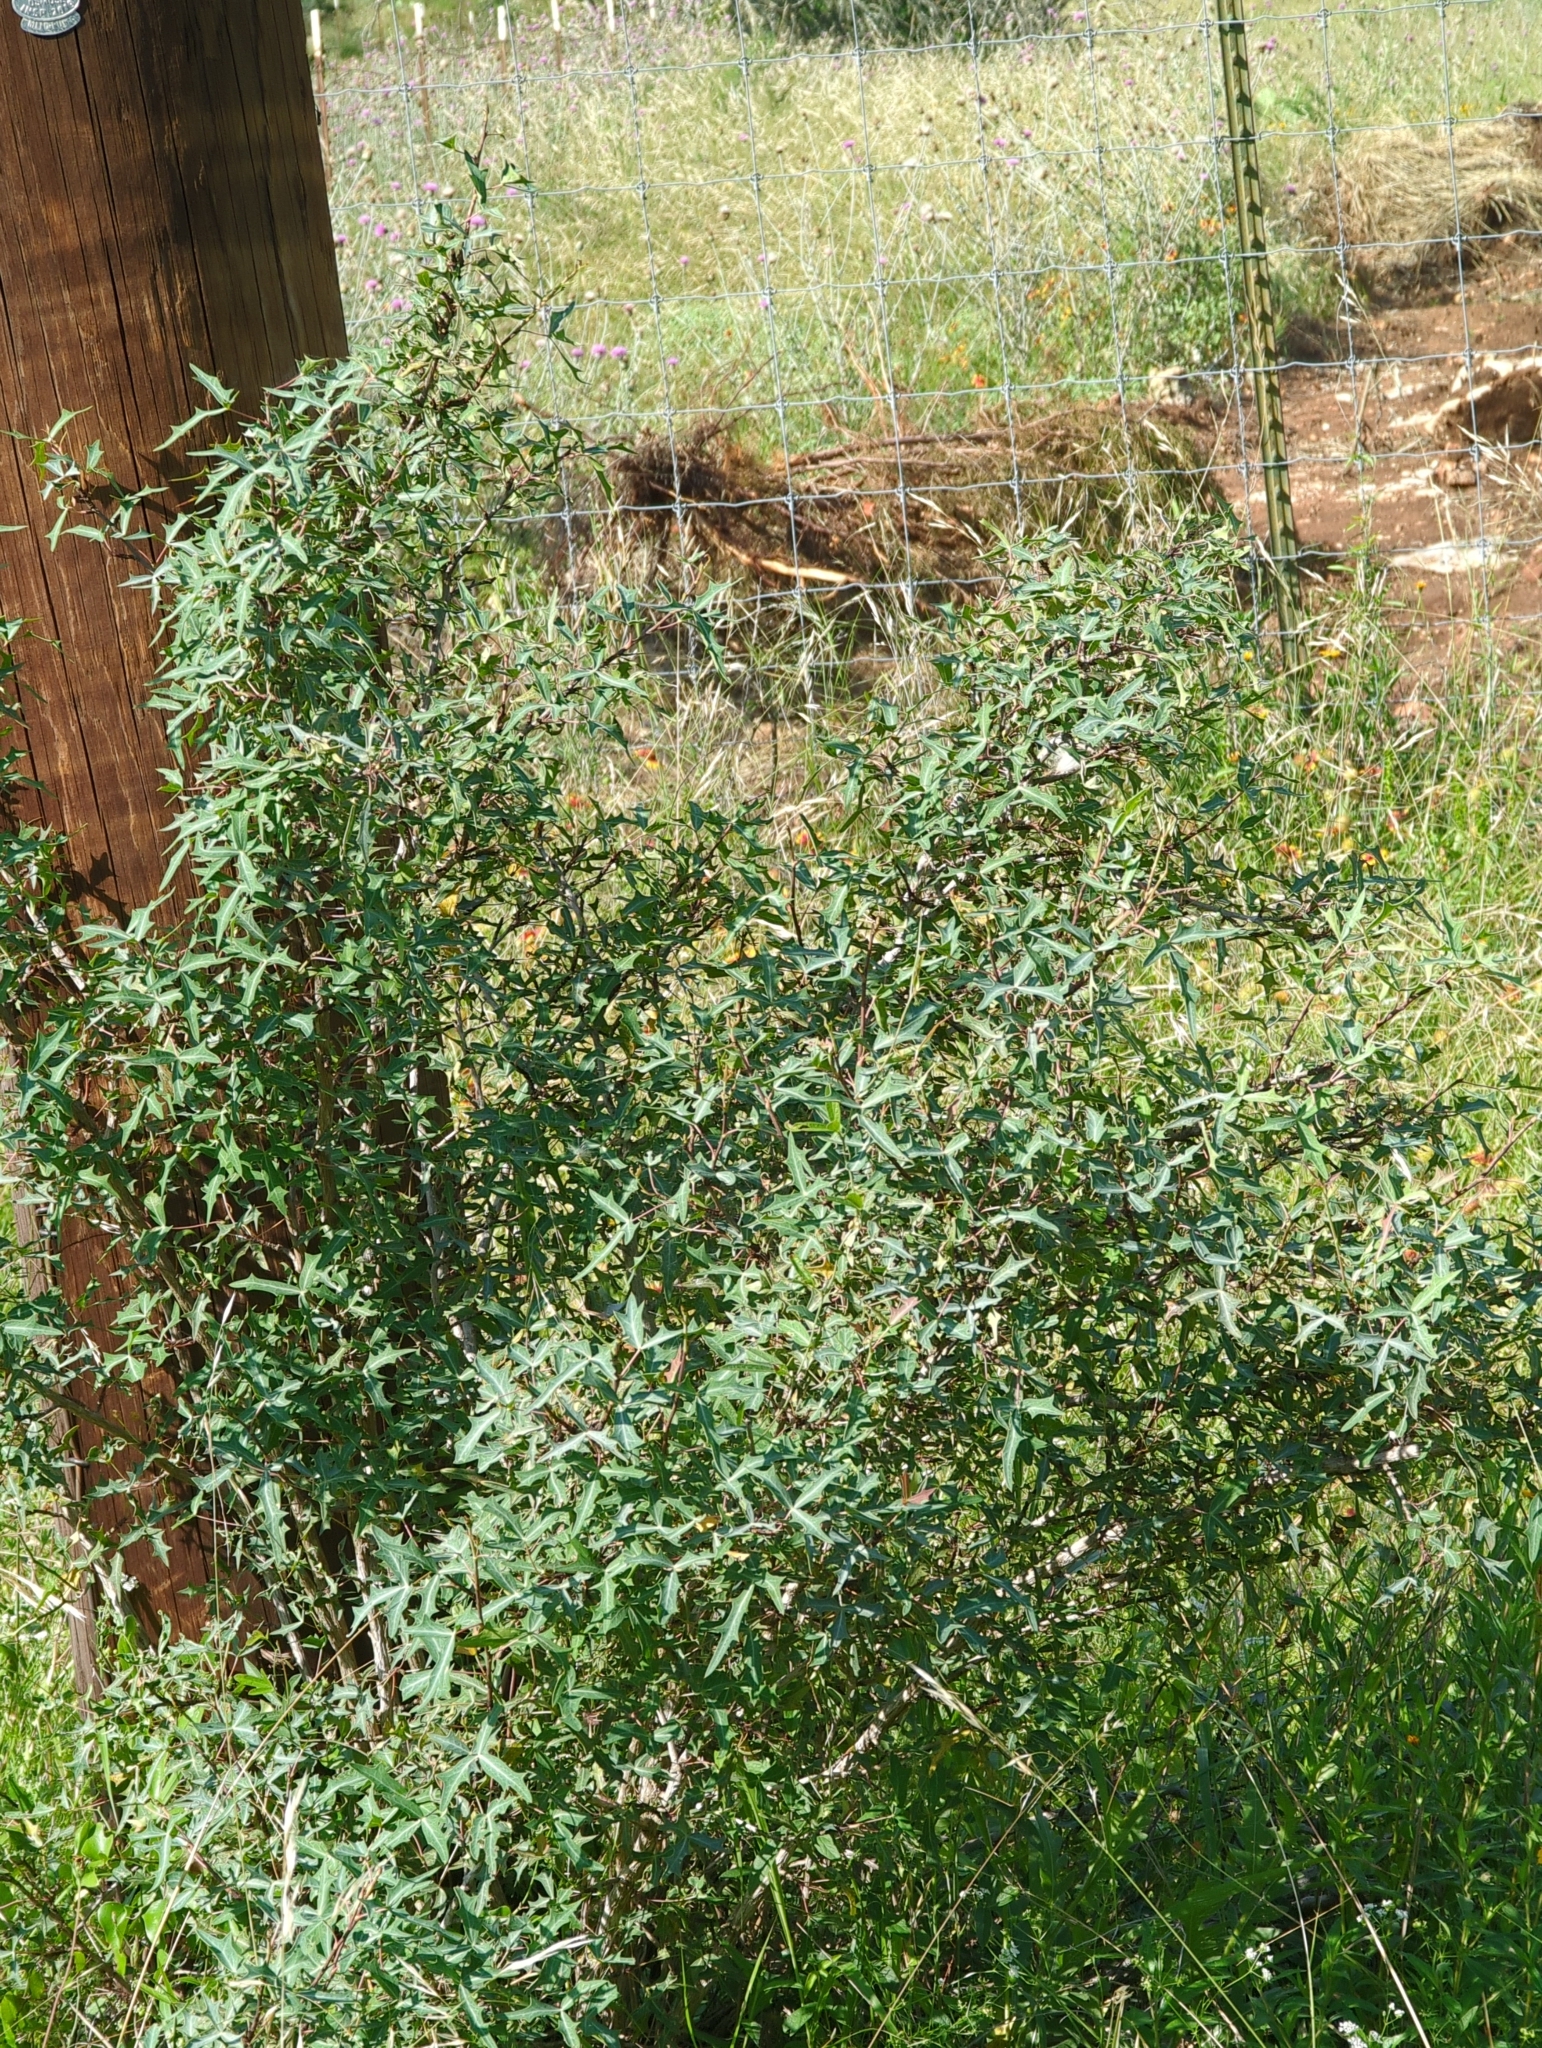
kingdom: Plantae
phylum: Tracheophyta
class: Magnoliopsida
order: Ranunculales
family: Berberidaceae
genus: Alloberberis
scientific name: Alloberberis trifoliolata
